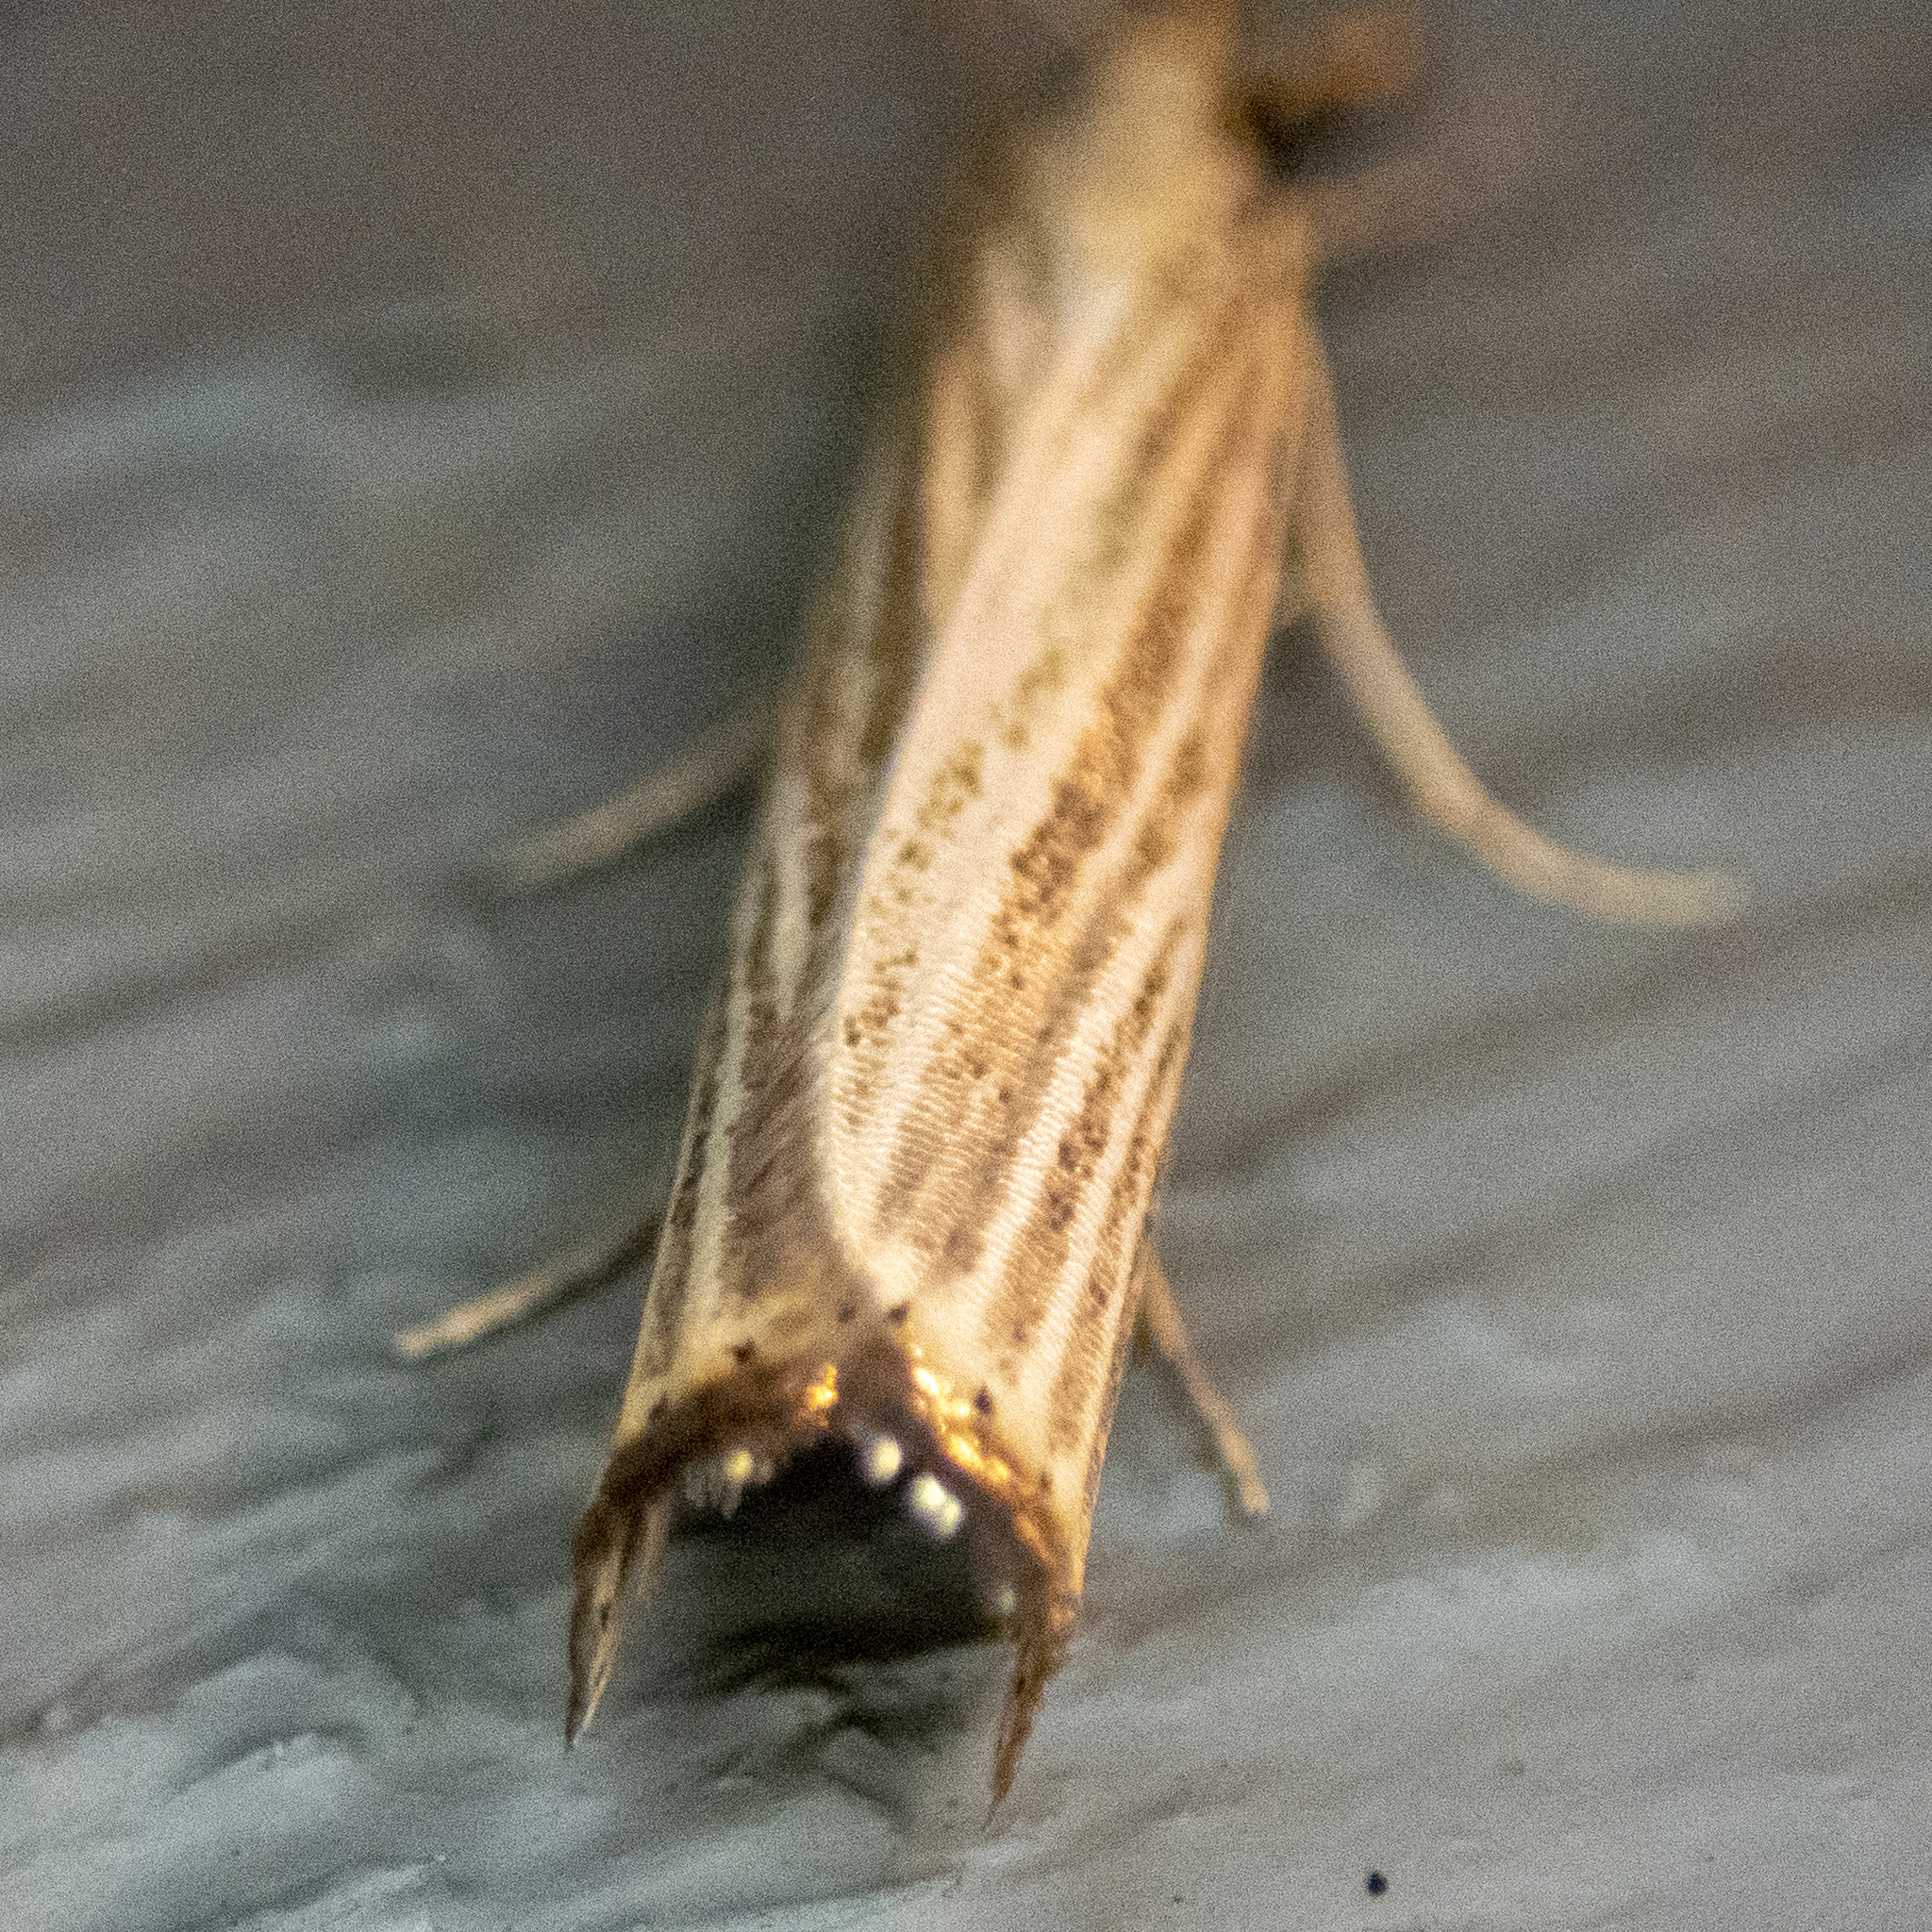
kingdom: Animalia
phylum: Arthropoda
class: Insecta
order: Lepidoptera
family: Crambidae
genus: Agriphila
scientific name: Agriphila vulgivagellus
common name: Vagabond crambus moth
